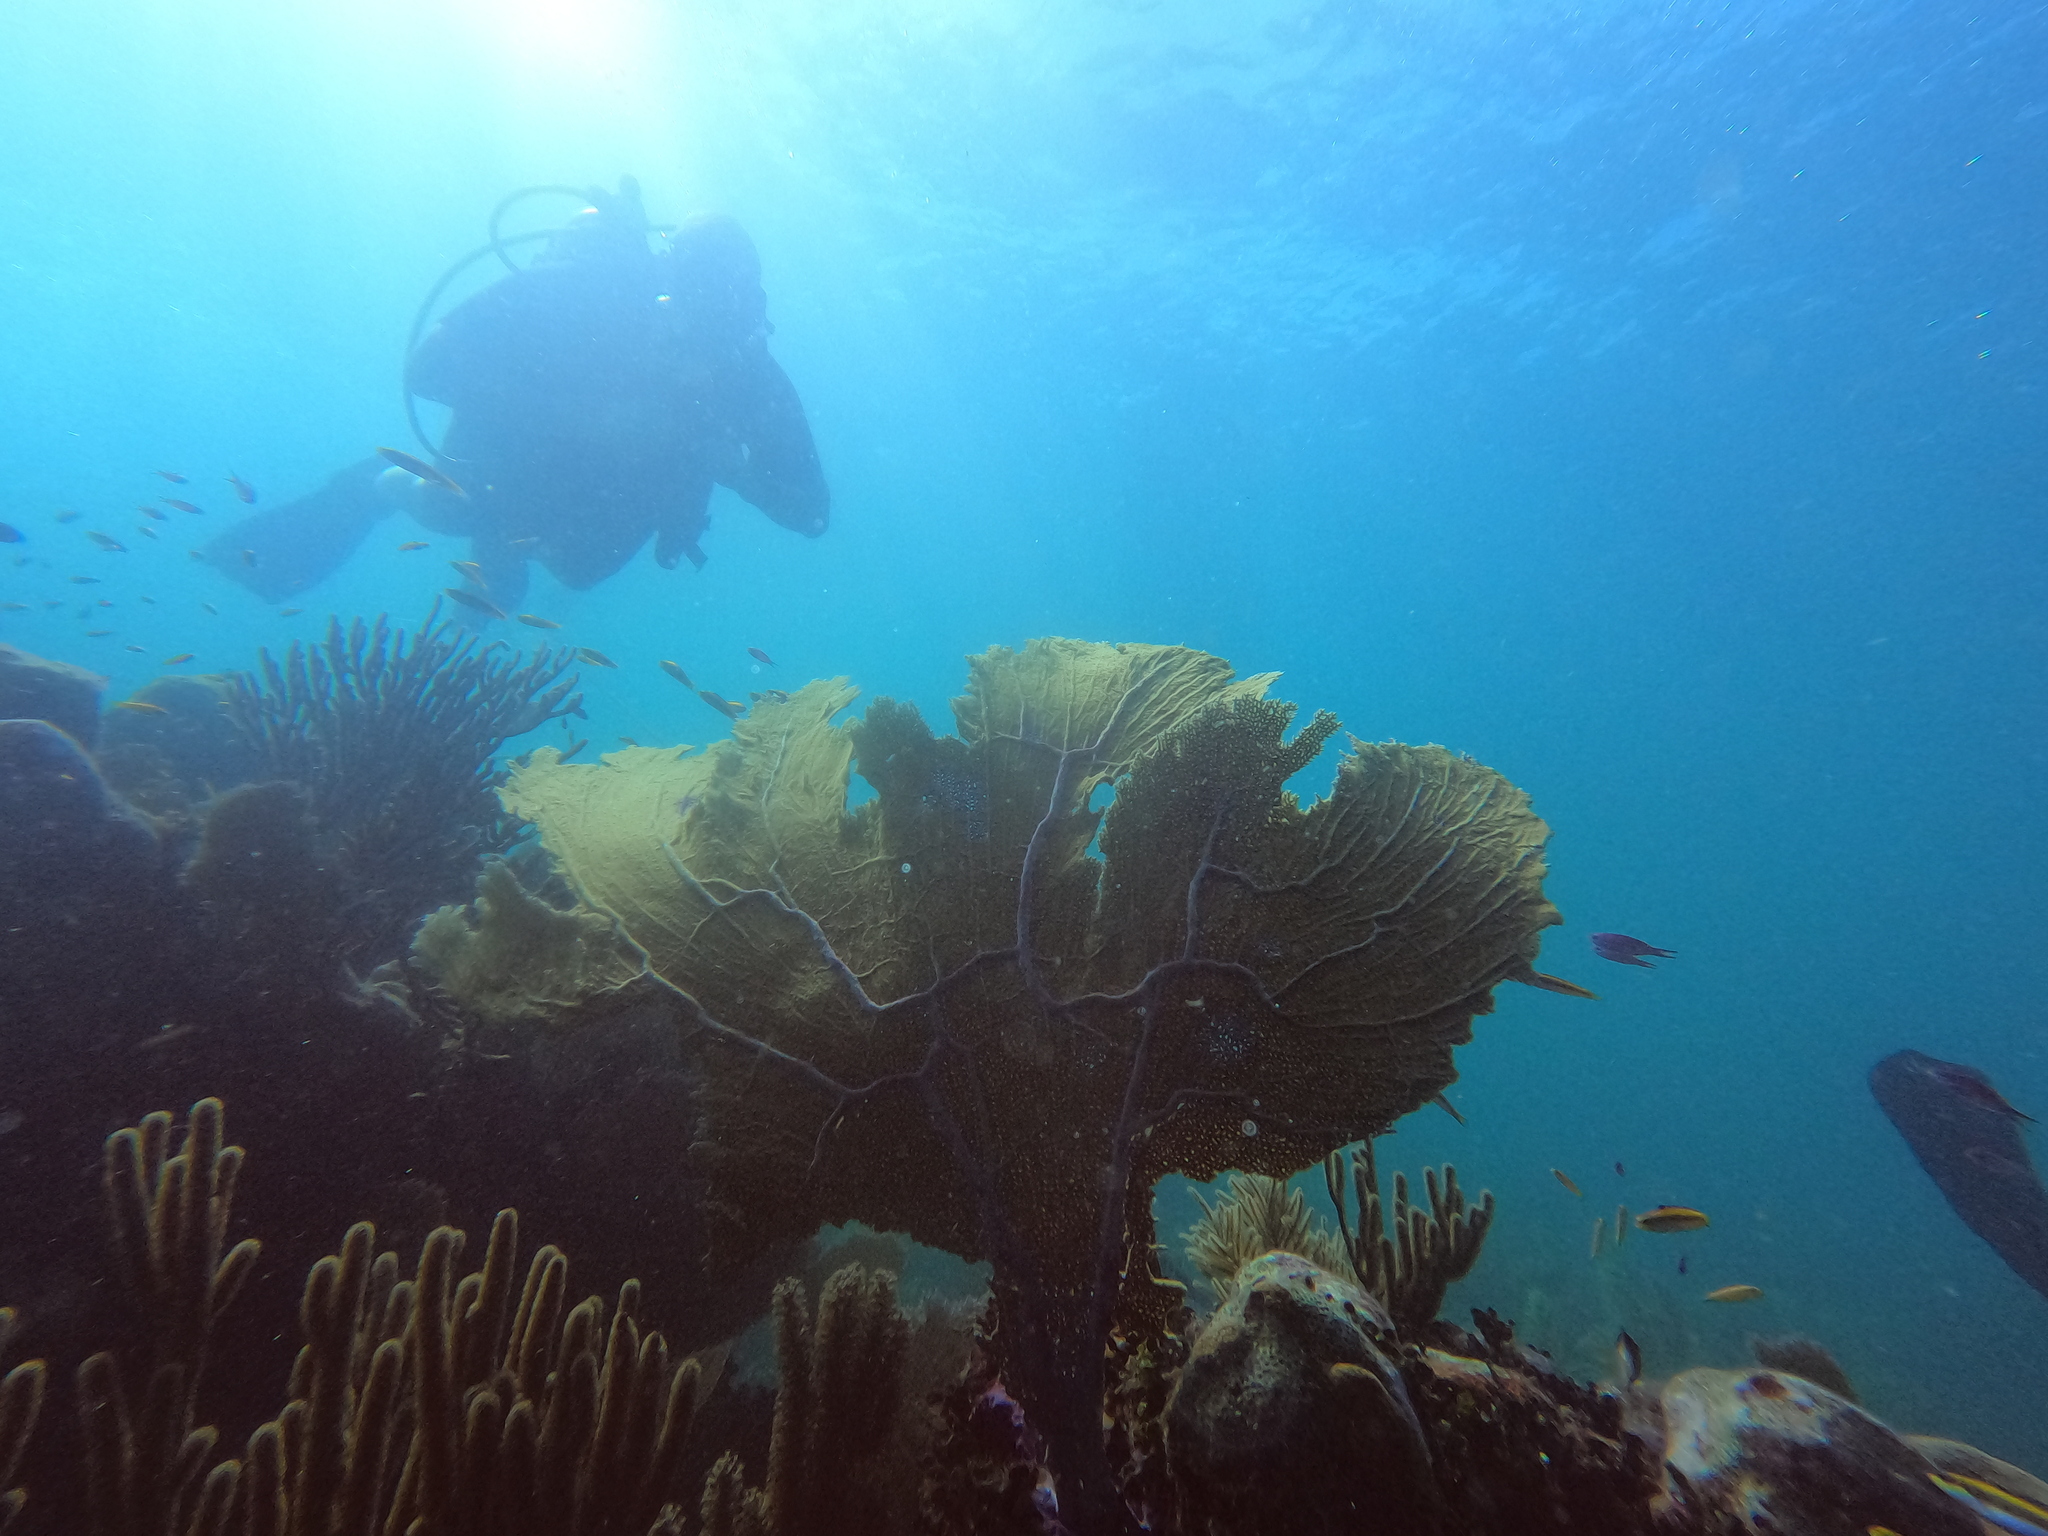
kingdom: Animalia
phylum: Cnidaria
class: Anthozoa
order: Malacalcyonacea
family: Gorgoniidae
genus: Gorgonia
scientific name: Gorgonia ventalina
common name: Common sea fan
